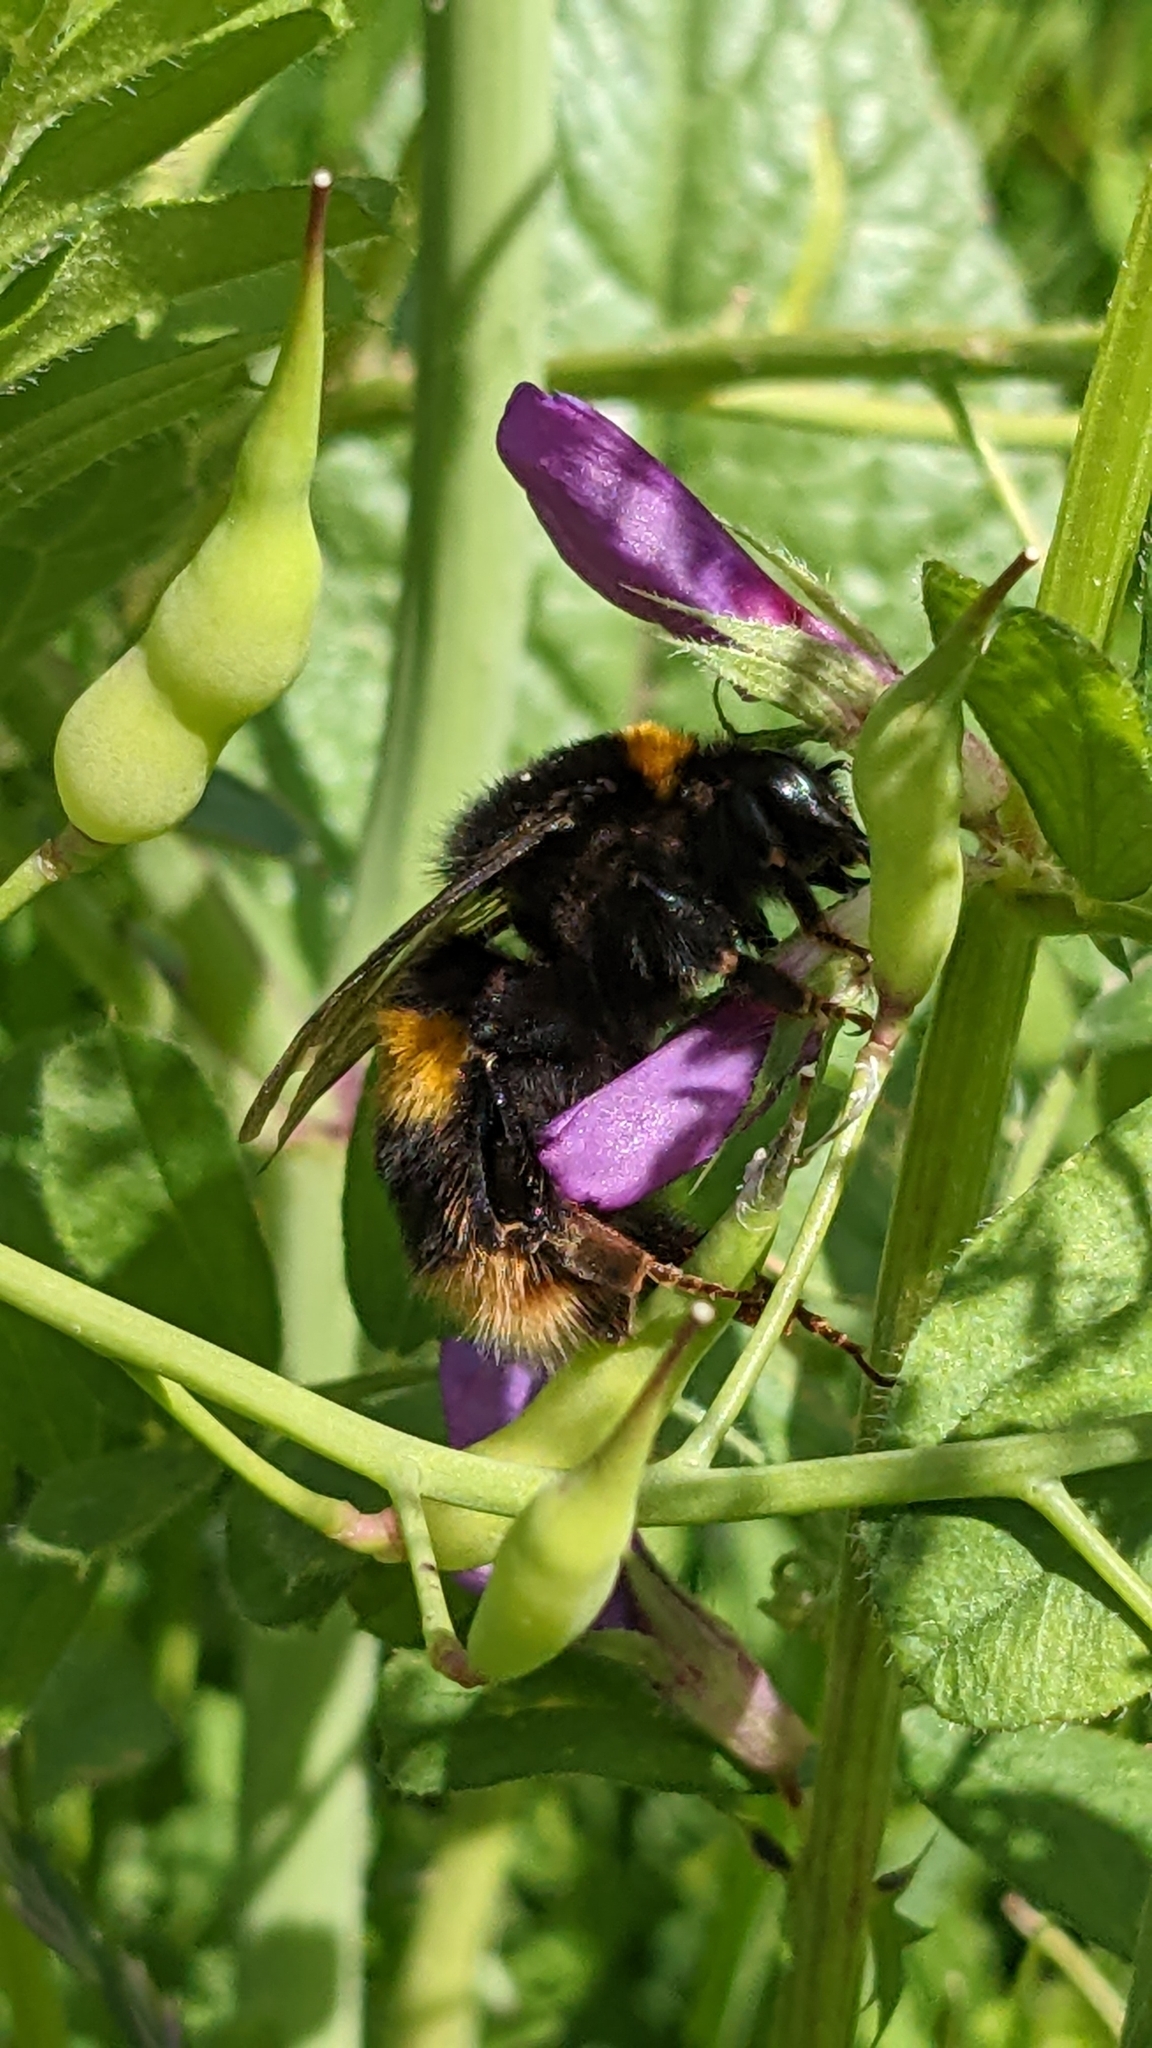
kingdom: Animalia
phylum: Arthropoda
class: Insecta
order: Hymenoptera
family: Apidae
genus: Bombus
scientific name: Bombus terrestris
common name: Buff-tailed bumblebee
